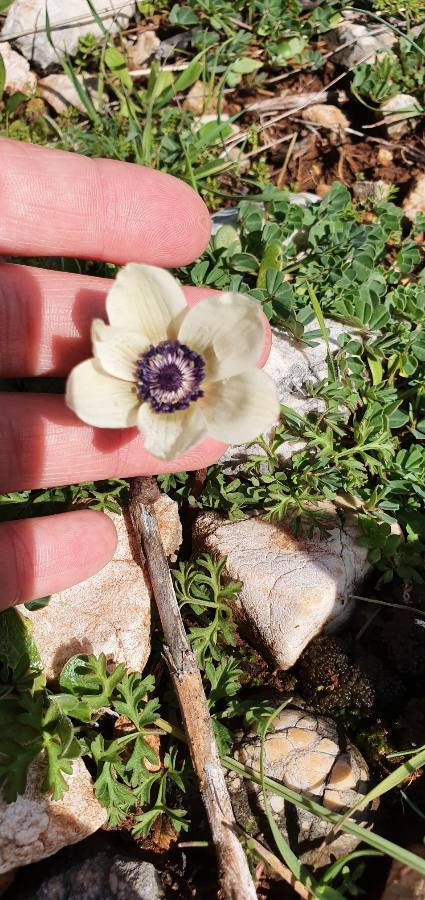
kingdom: Plantae
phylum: Tracheophyta
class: Magnoliopsida
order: Ranunculales
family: Ranunculaceae
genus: Anemone
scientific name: Anemone coronaria
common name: Poppy anemone
